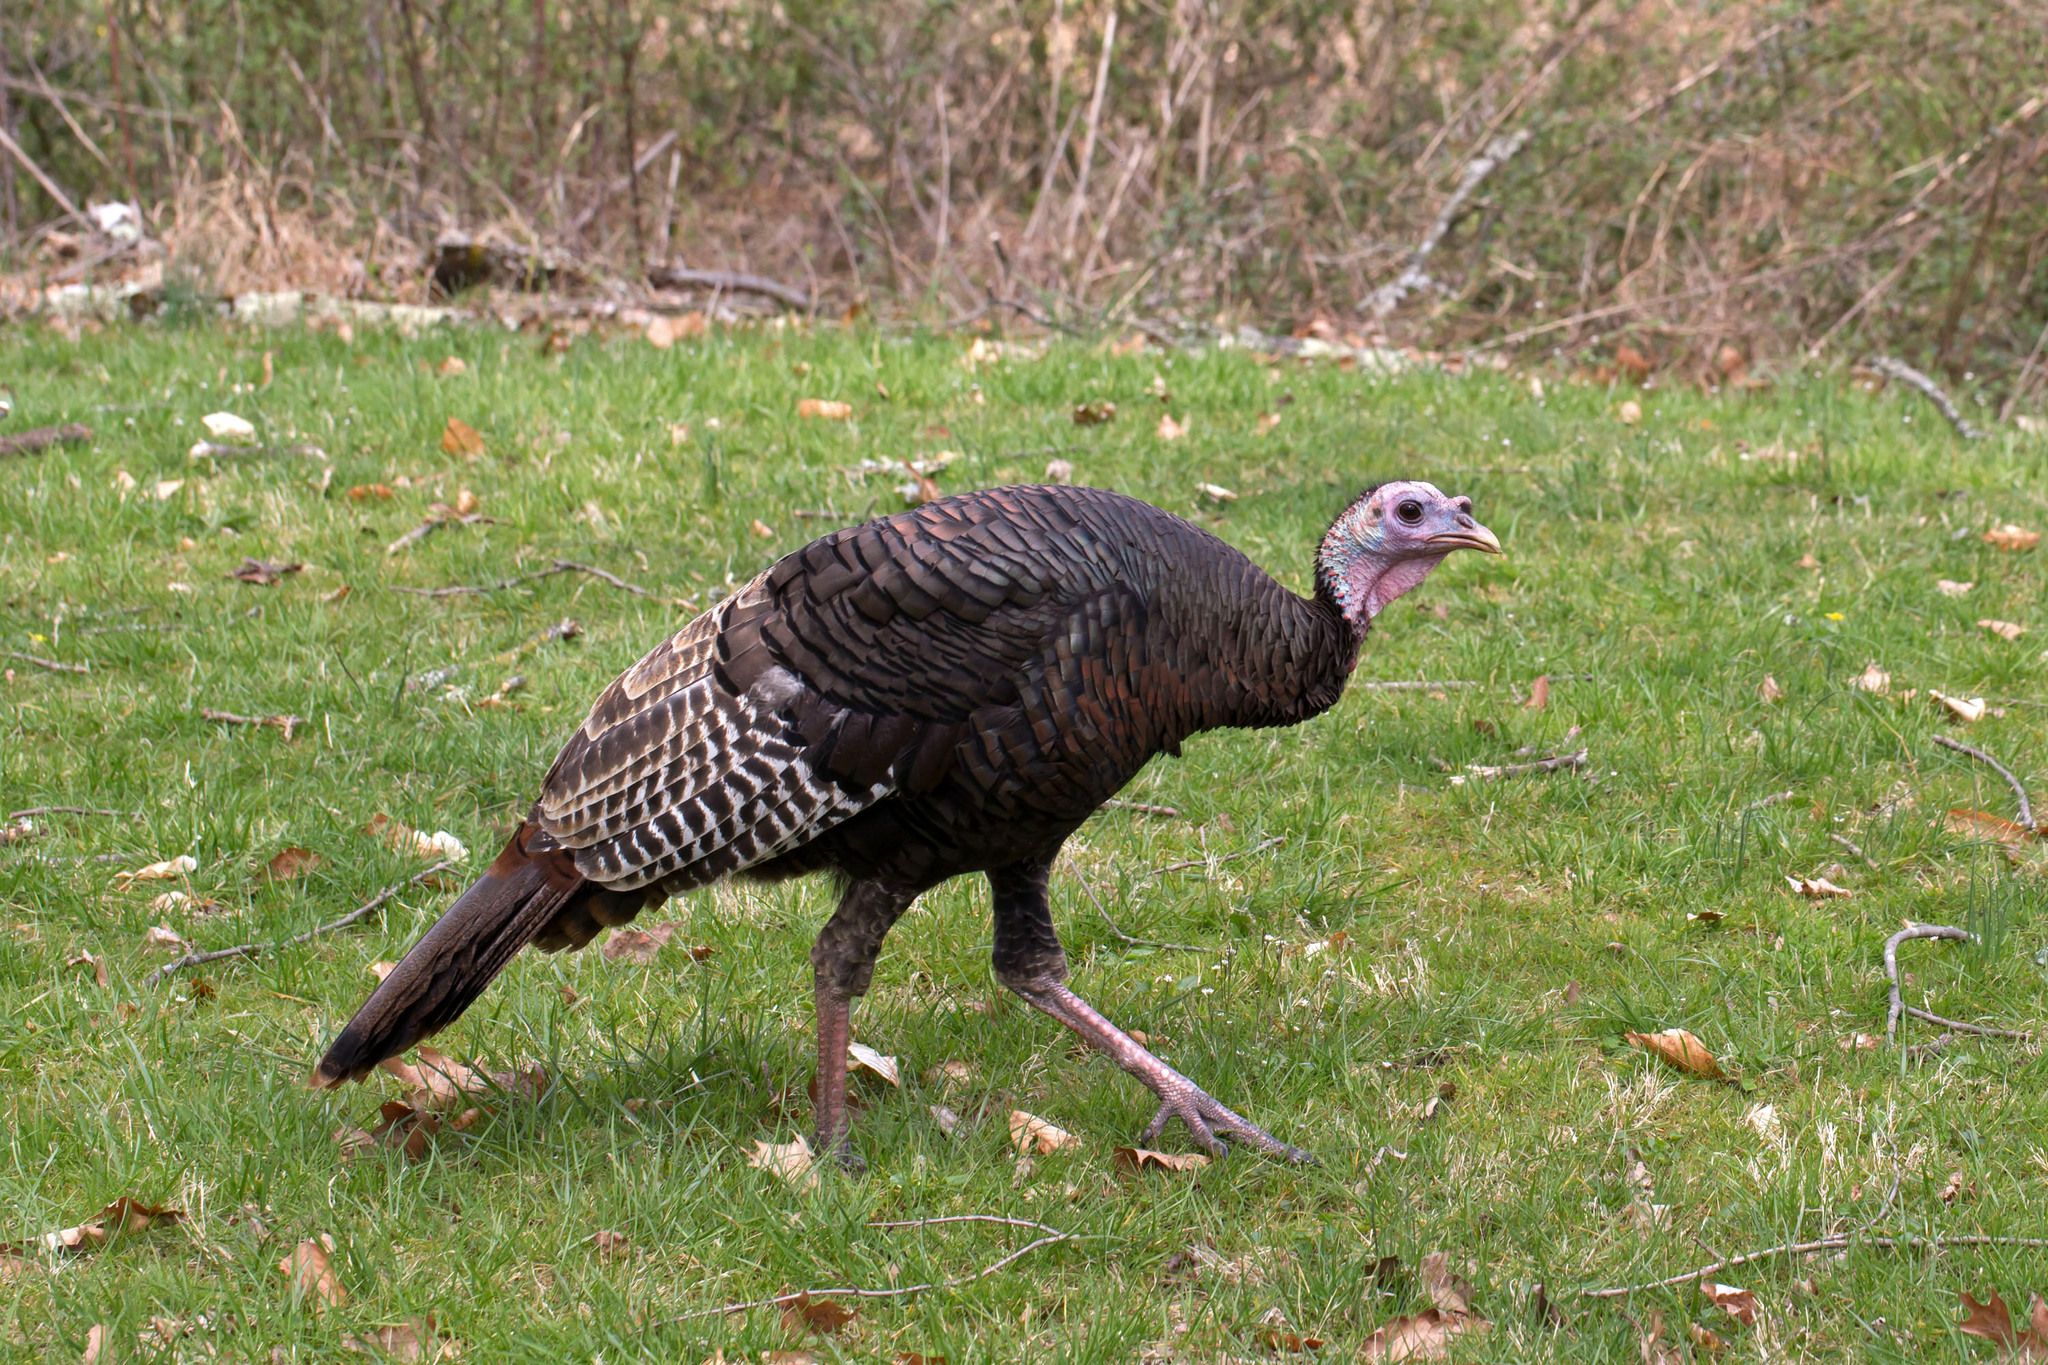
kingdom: Animalia
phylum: Chordata
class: Aves
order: Galliformes
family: Phasianidae
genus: Meleagris
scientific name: Meleagris gallopavo
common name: Wild turkey
